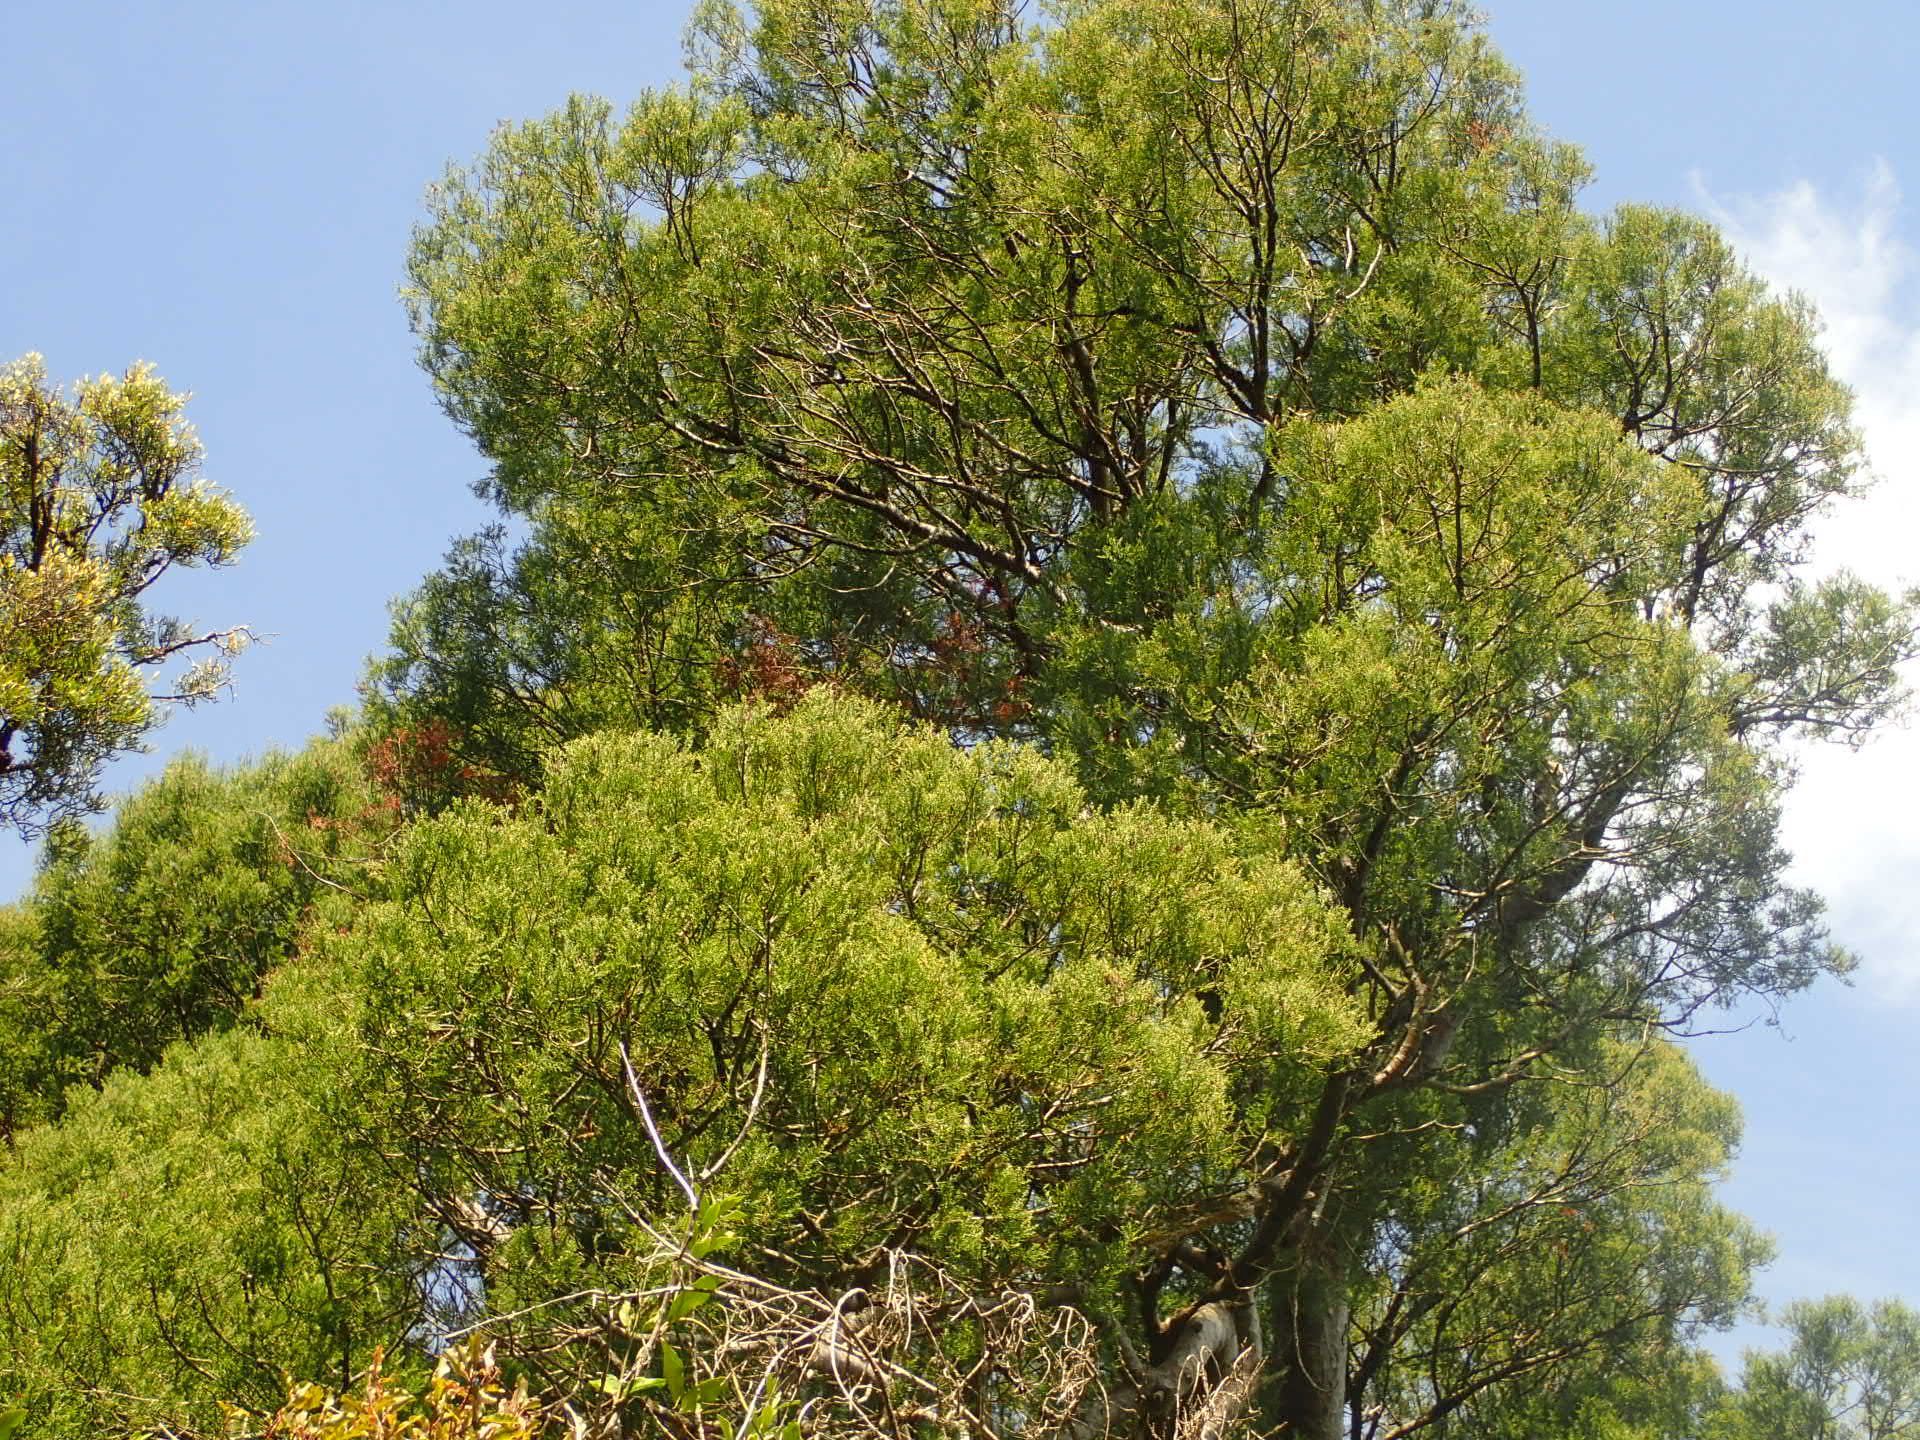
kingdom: Plantae
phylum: Tracheophyta
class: Pinopsida
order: Pinales
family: Podocarpaceae
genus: Prumnopitys
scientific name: Prumnopitys taxifolia
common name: Matai
